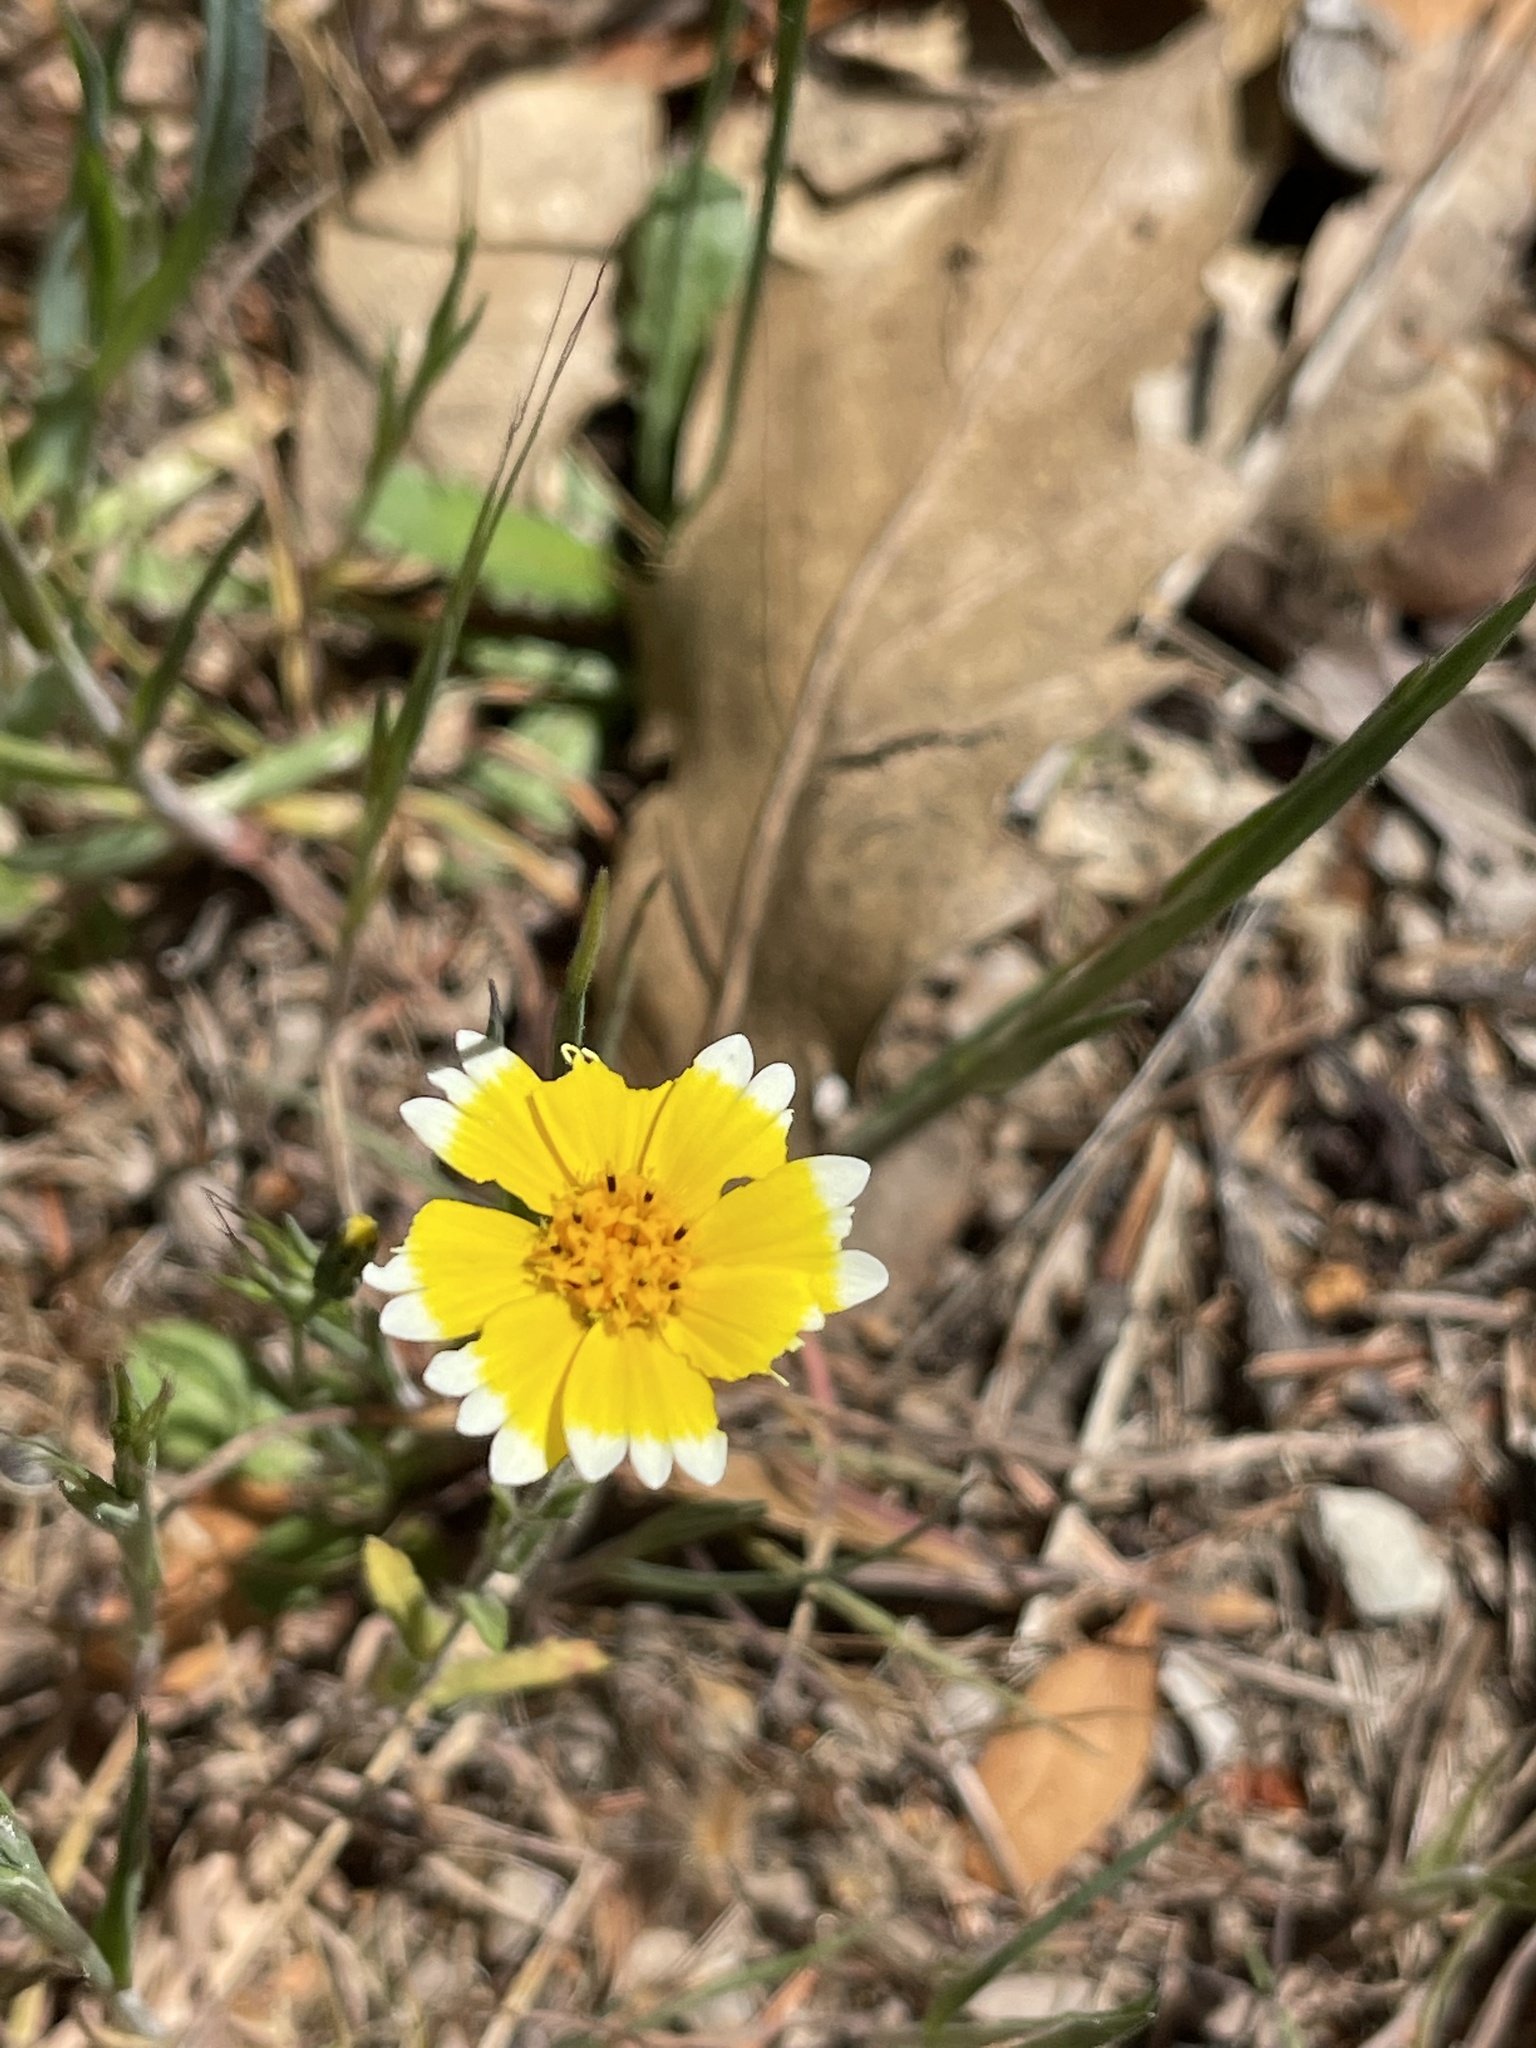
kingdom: Plantae
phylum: Tracheophyta
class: Magnoliopsida
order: Asterales
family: Asteraceae
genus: Layia
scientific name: Layia platyglossa
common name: Tidy-tips
